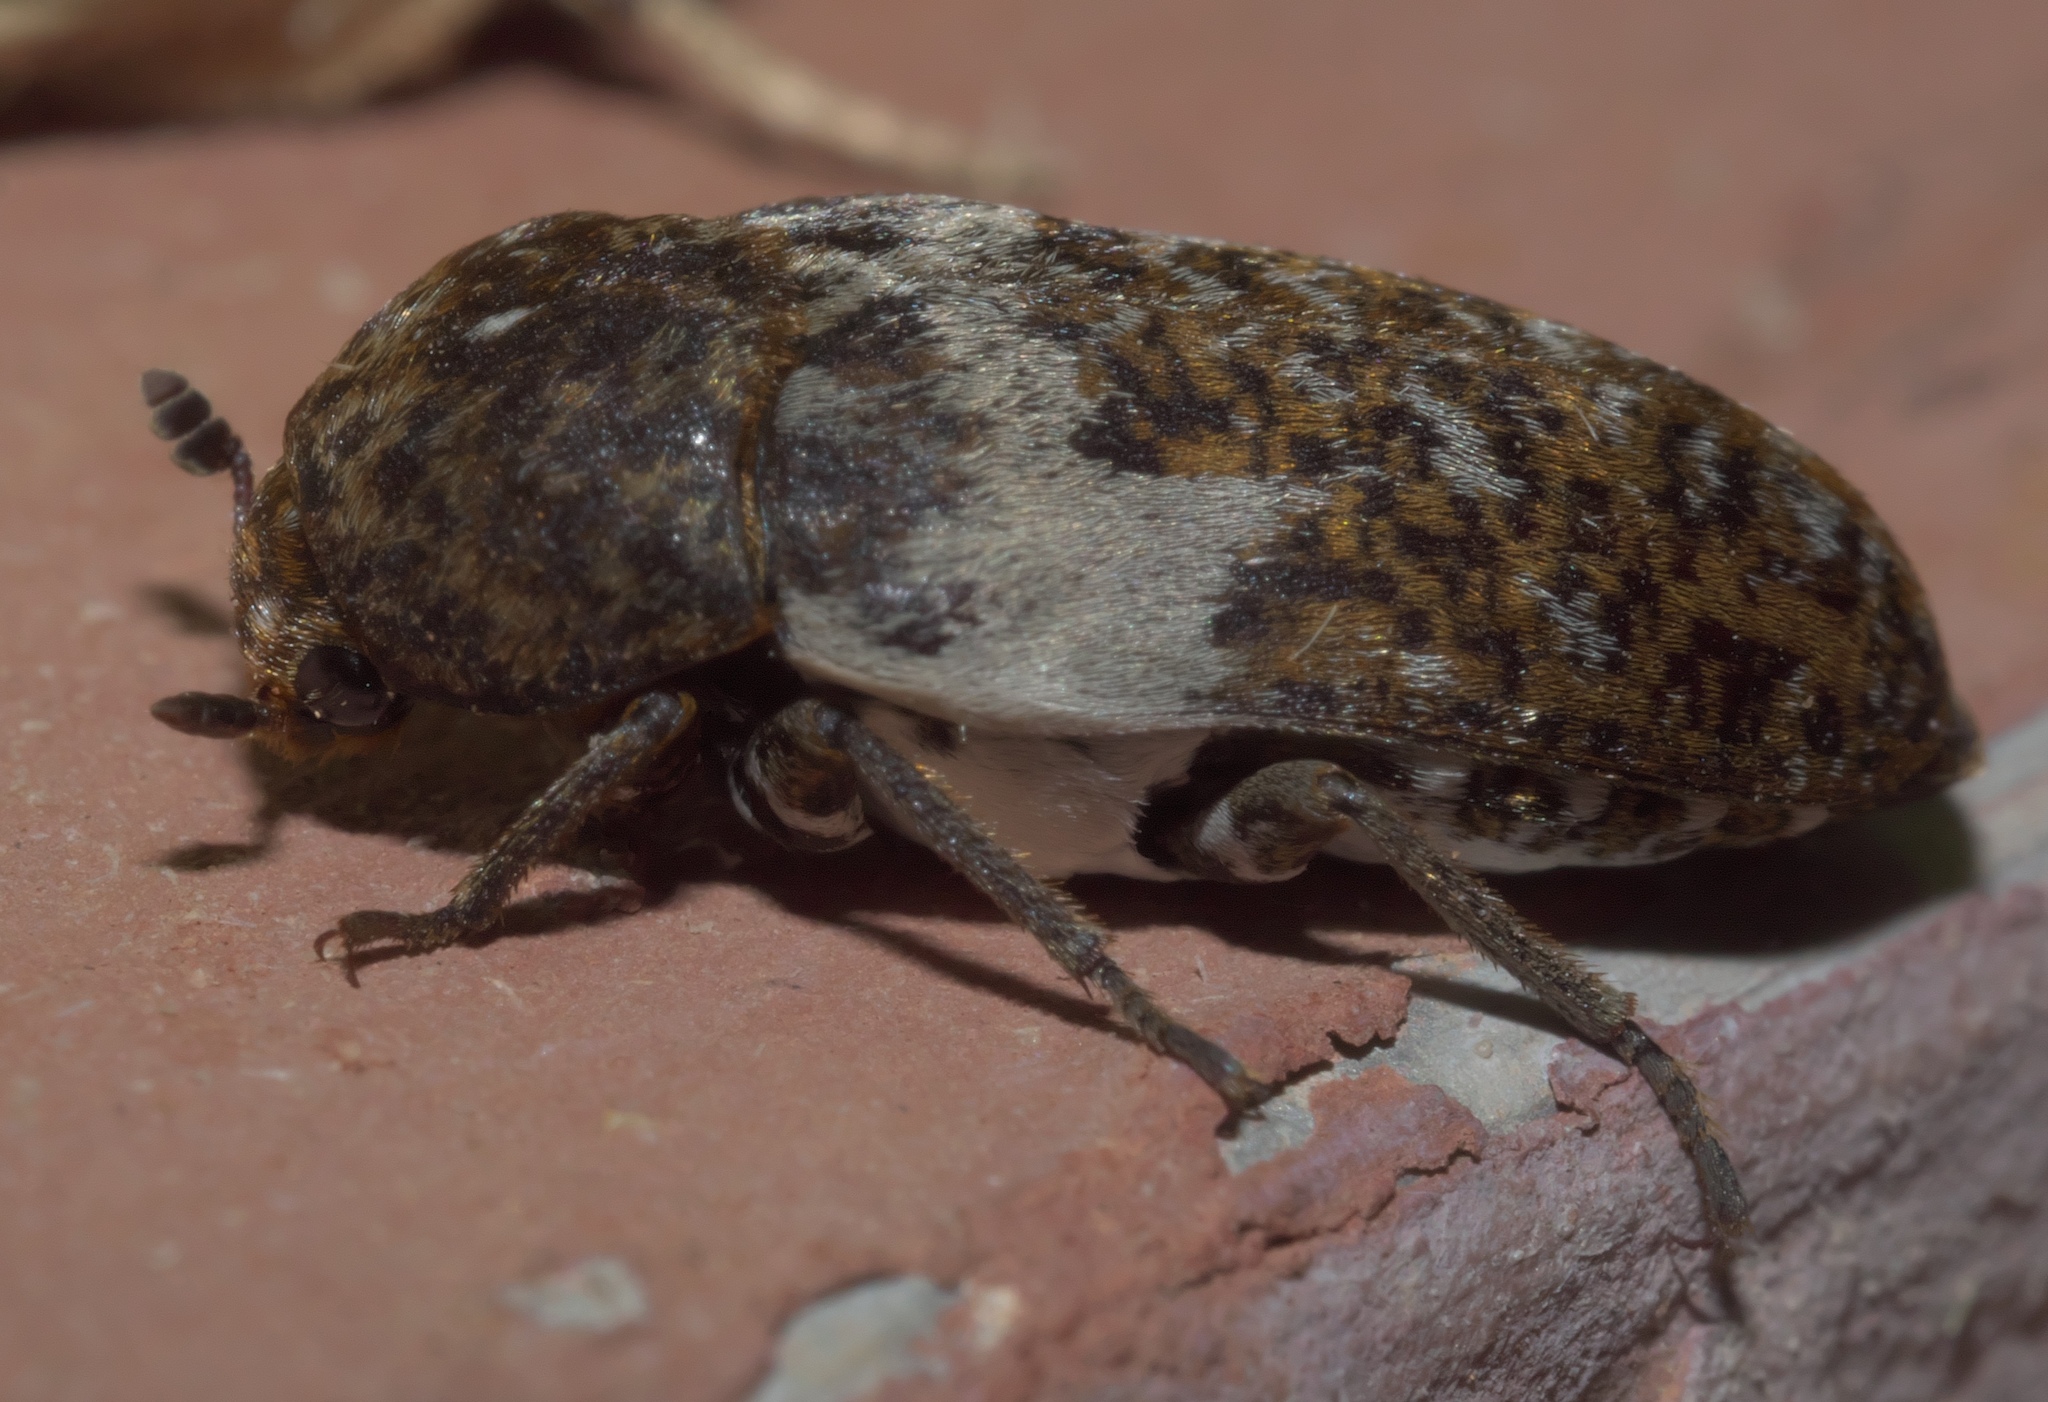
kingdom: Animalia
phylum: Arthropoda
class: Insecta
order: Coleoptera
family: Dermestidae
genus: Dermestes
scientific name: Dermestes marmoratus
